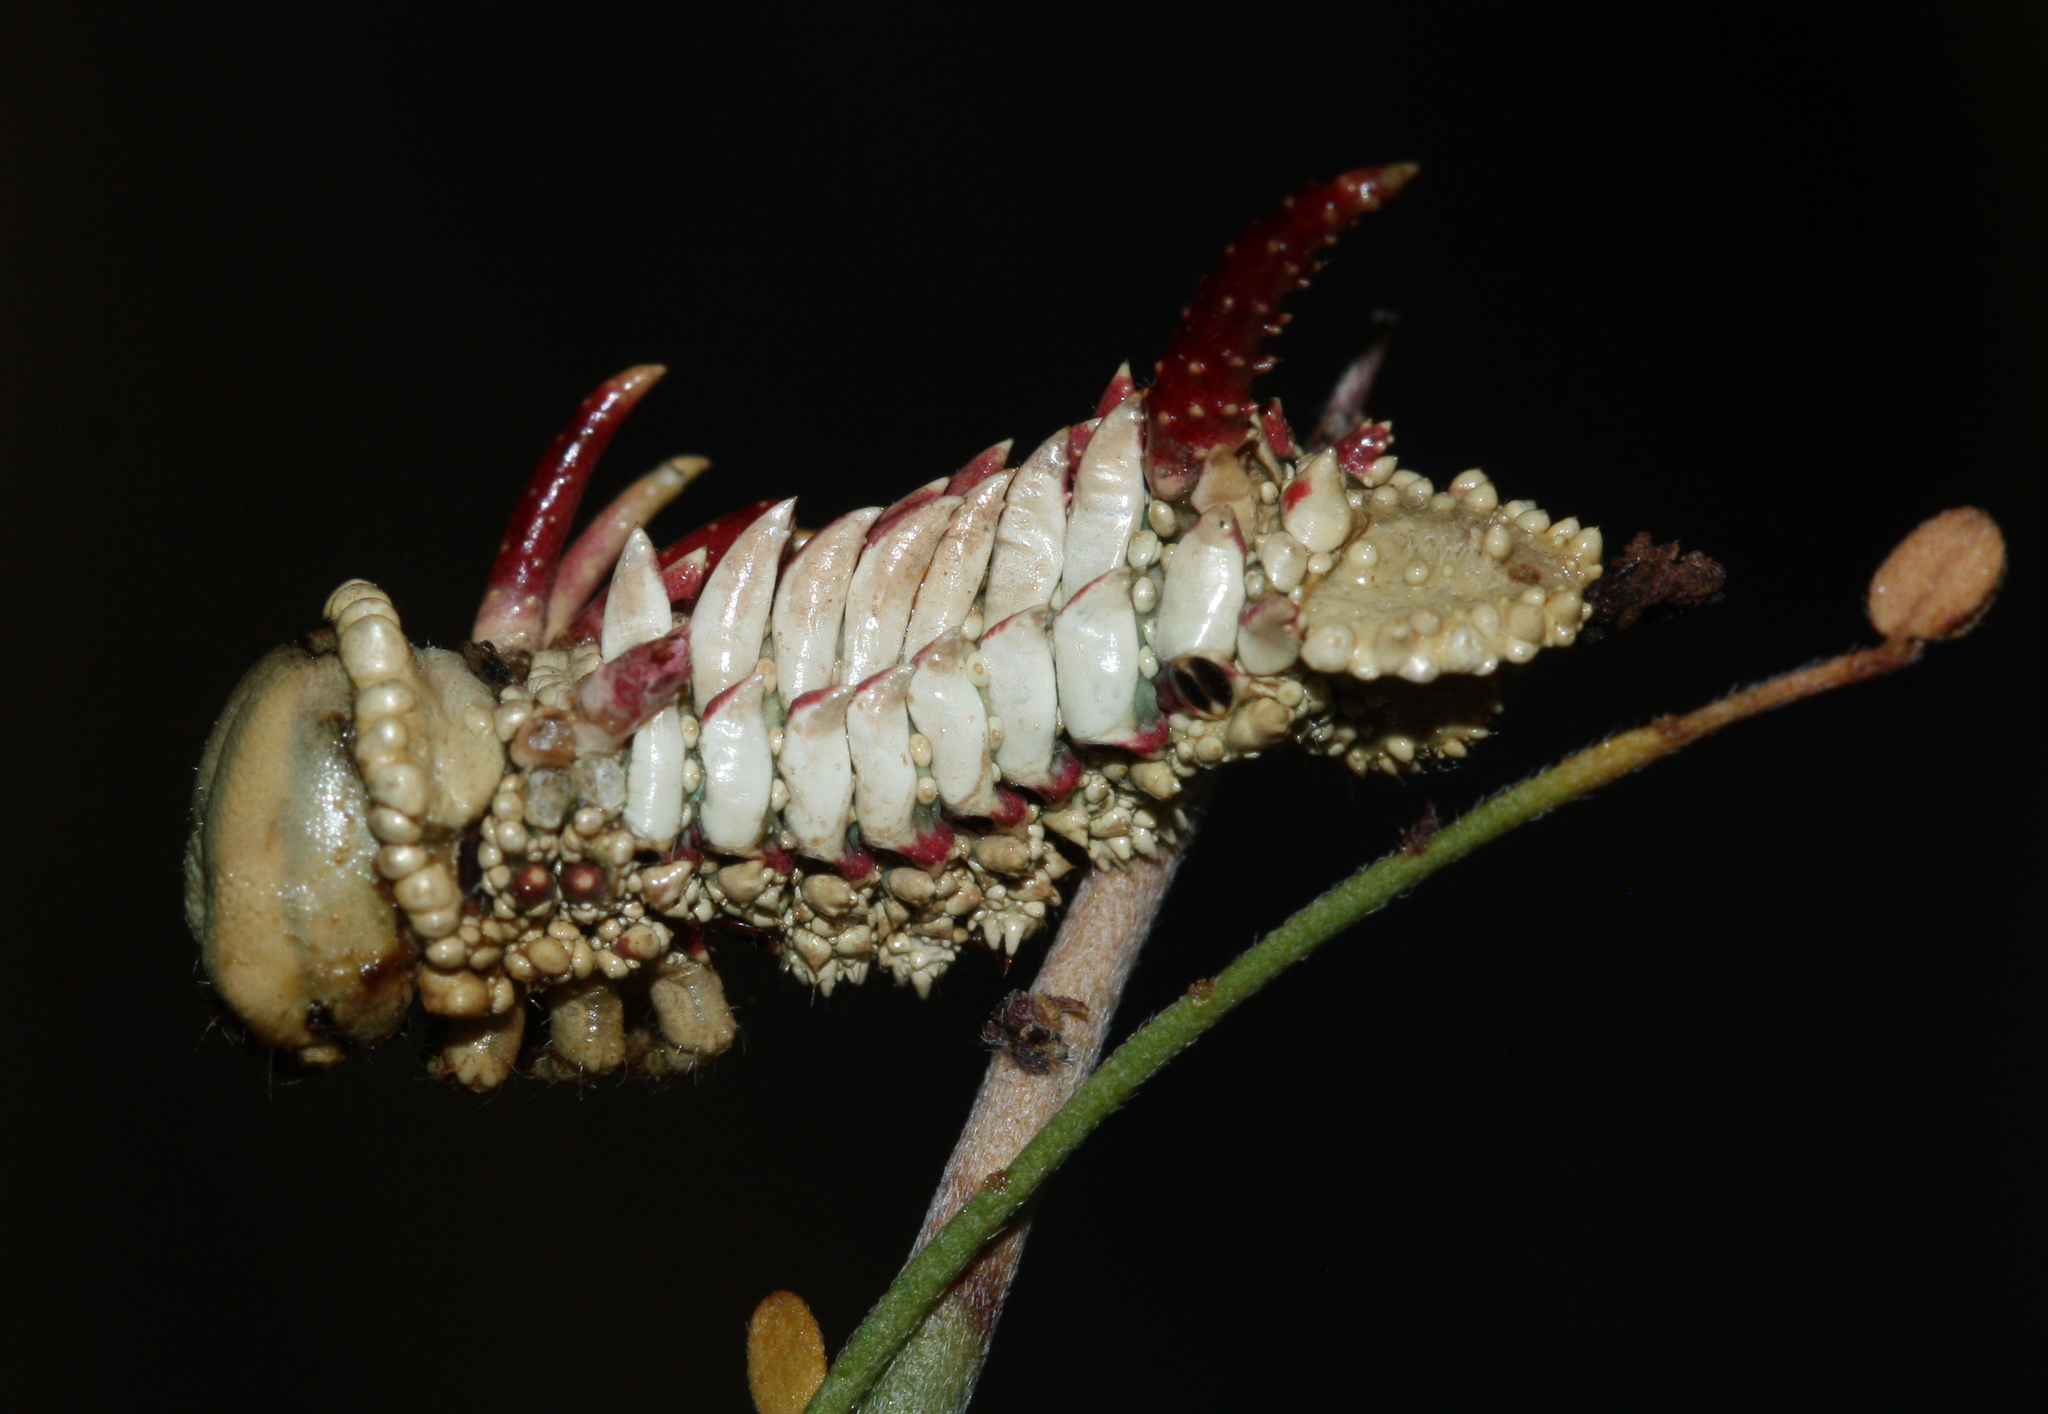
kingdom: Animalia
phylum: Arthropoda
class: Insecta
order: Lepidoptera
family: Saturniidae
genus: Syssphinx
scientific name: Syssphinx hubbardi
